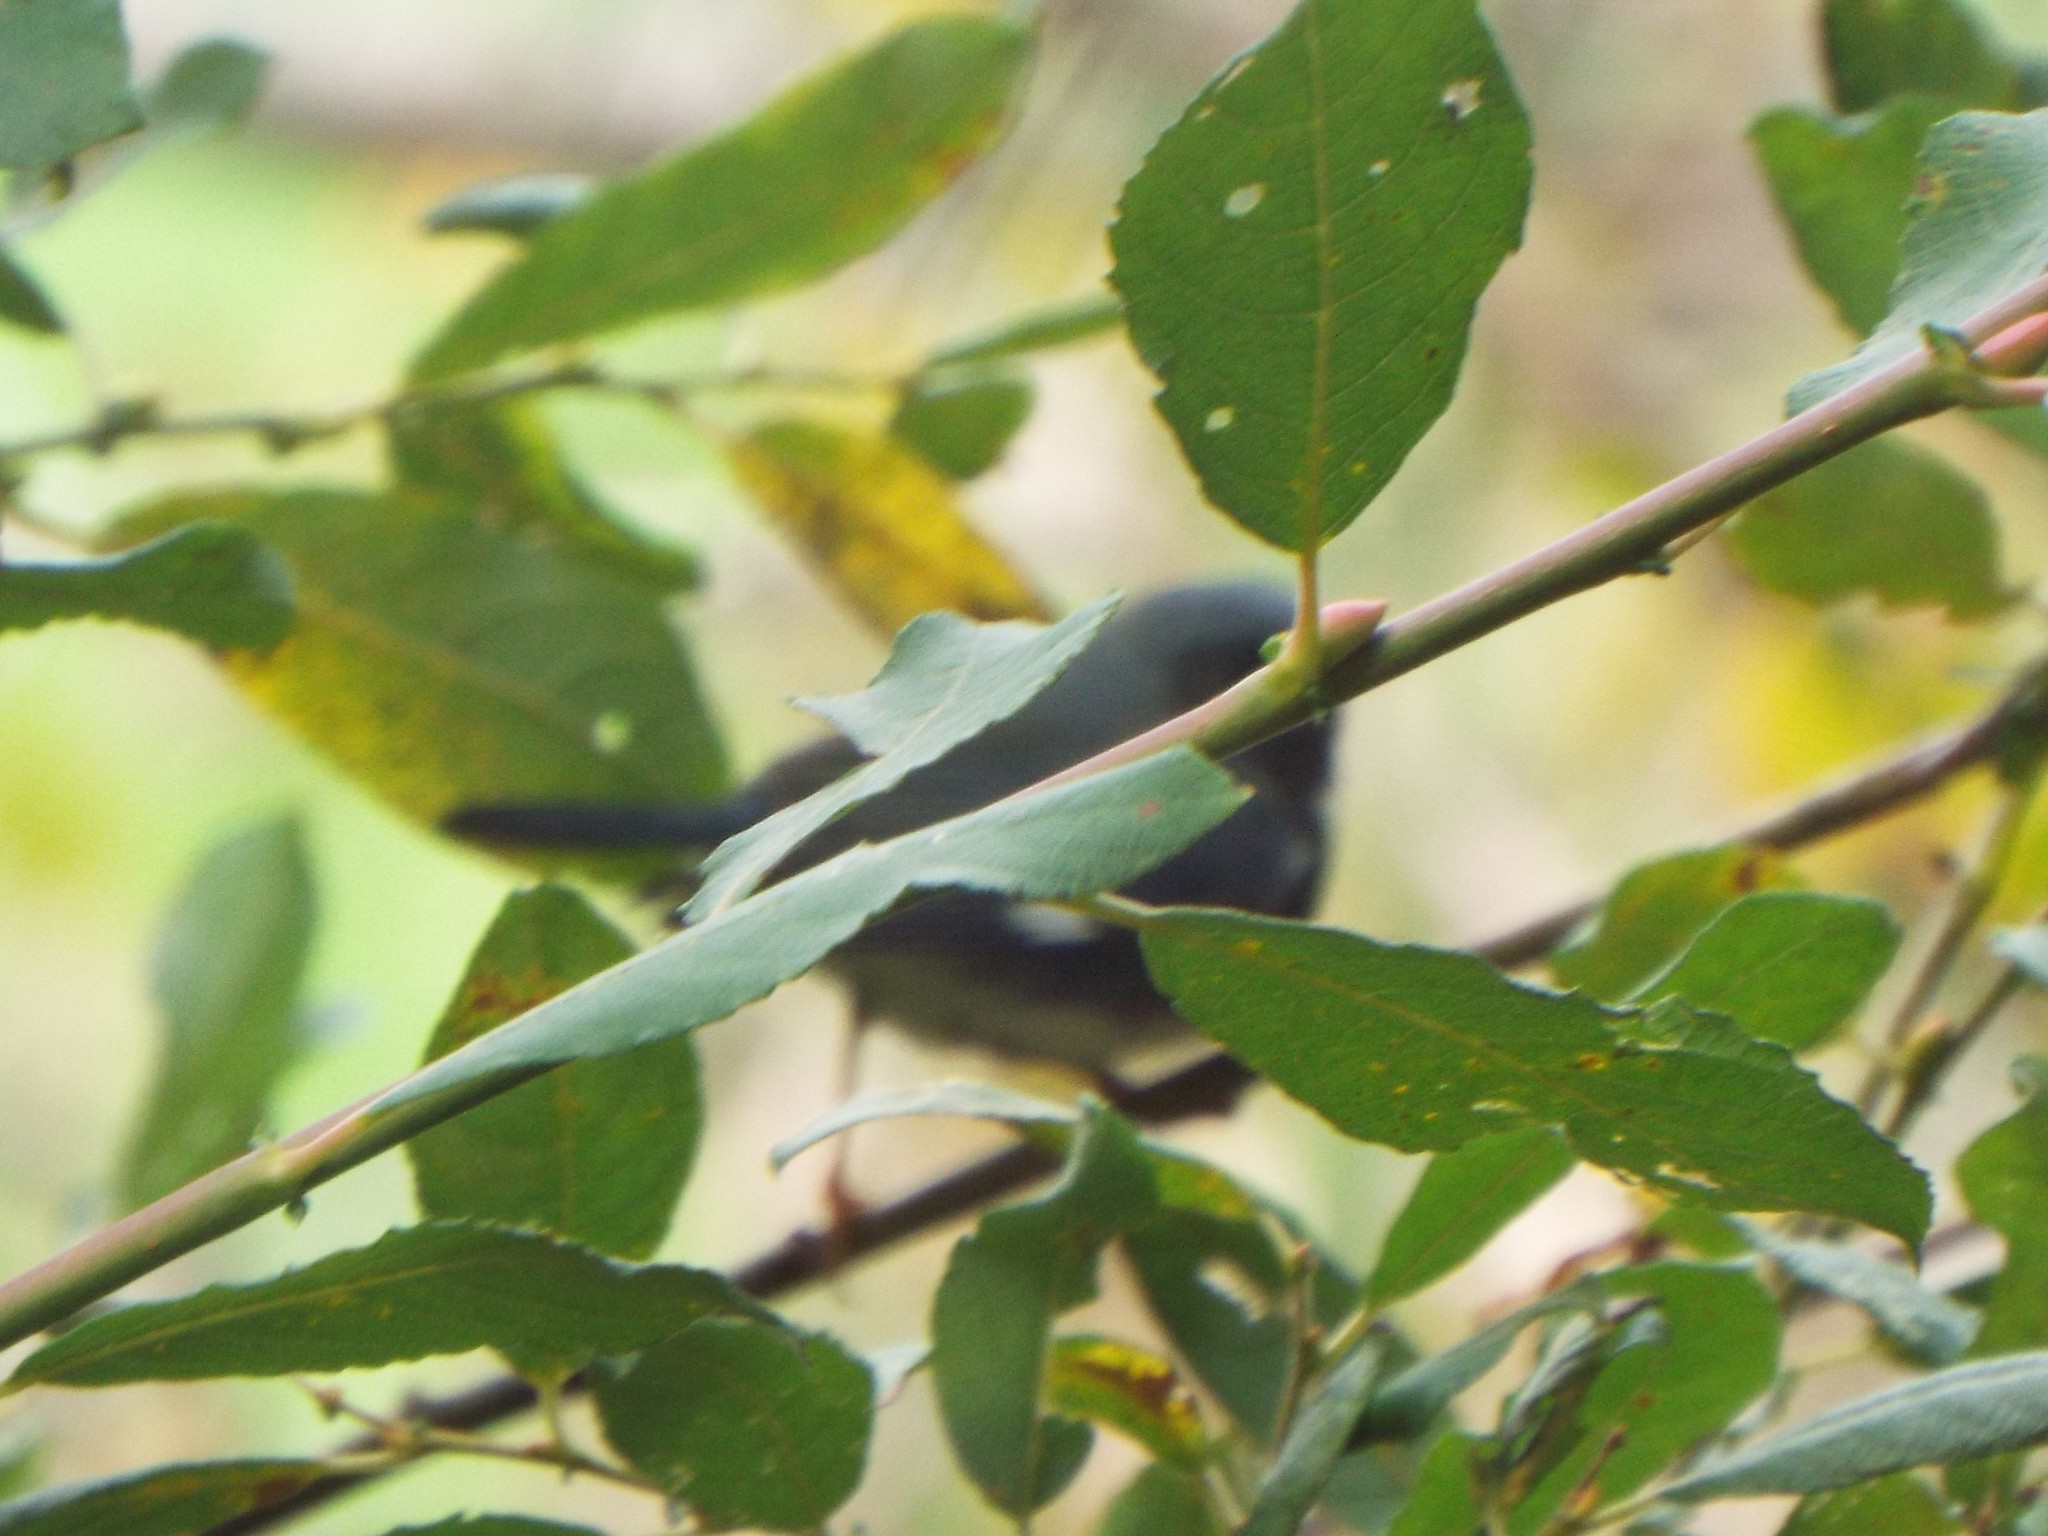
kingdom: Animalia
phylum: Chordata
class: Aves
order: Passeriformes
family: Parulidae
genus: Setophaga
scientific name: Setophaga caerulescens
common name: Black-throated blue warbler
